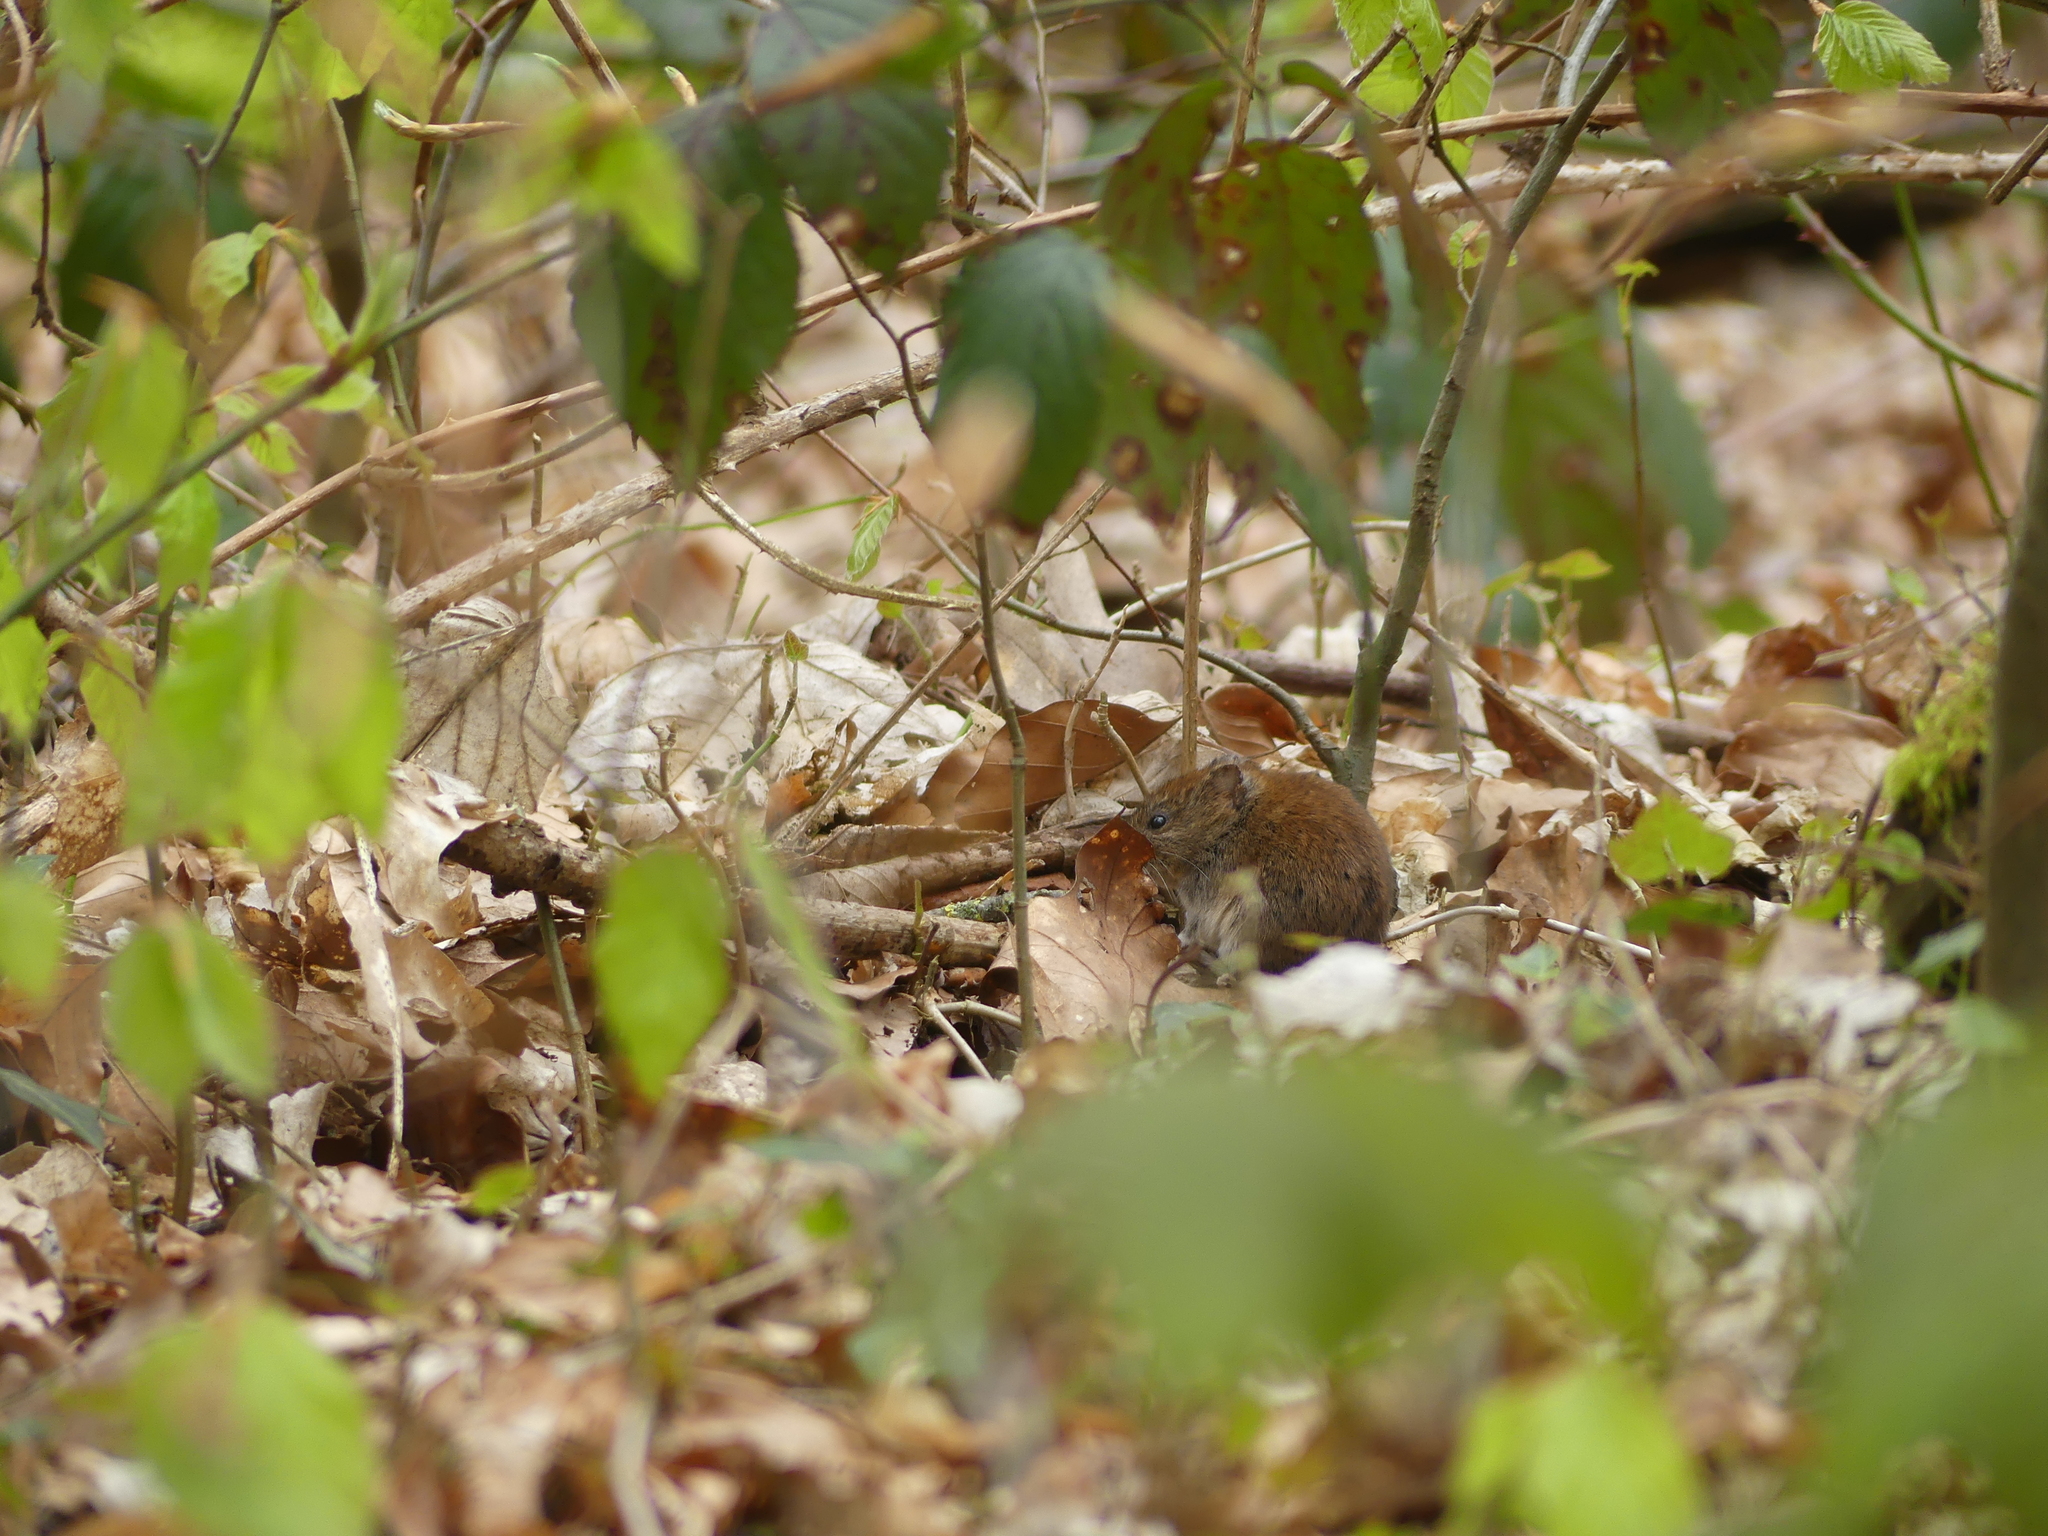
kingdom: Animalia
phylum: Chordata
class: Mammalia
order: Rodentia
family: Cricetidae
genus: Myodes
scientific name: Myodes glareolus
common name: Bank vole
